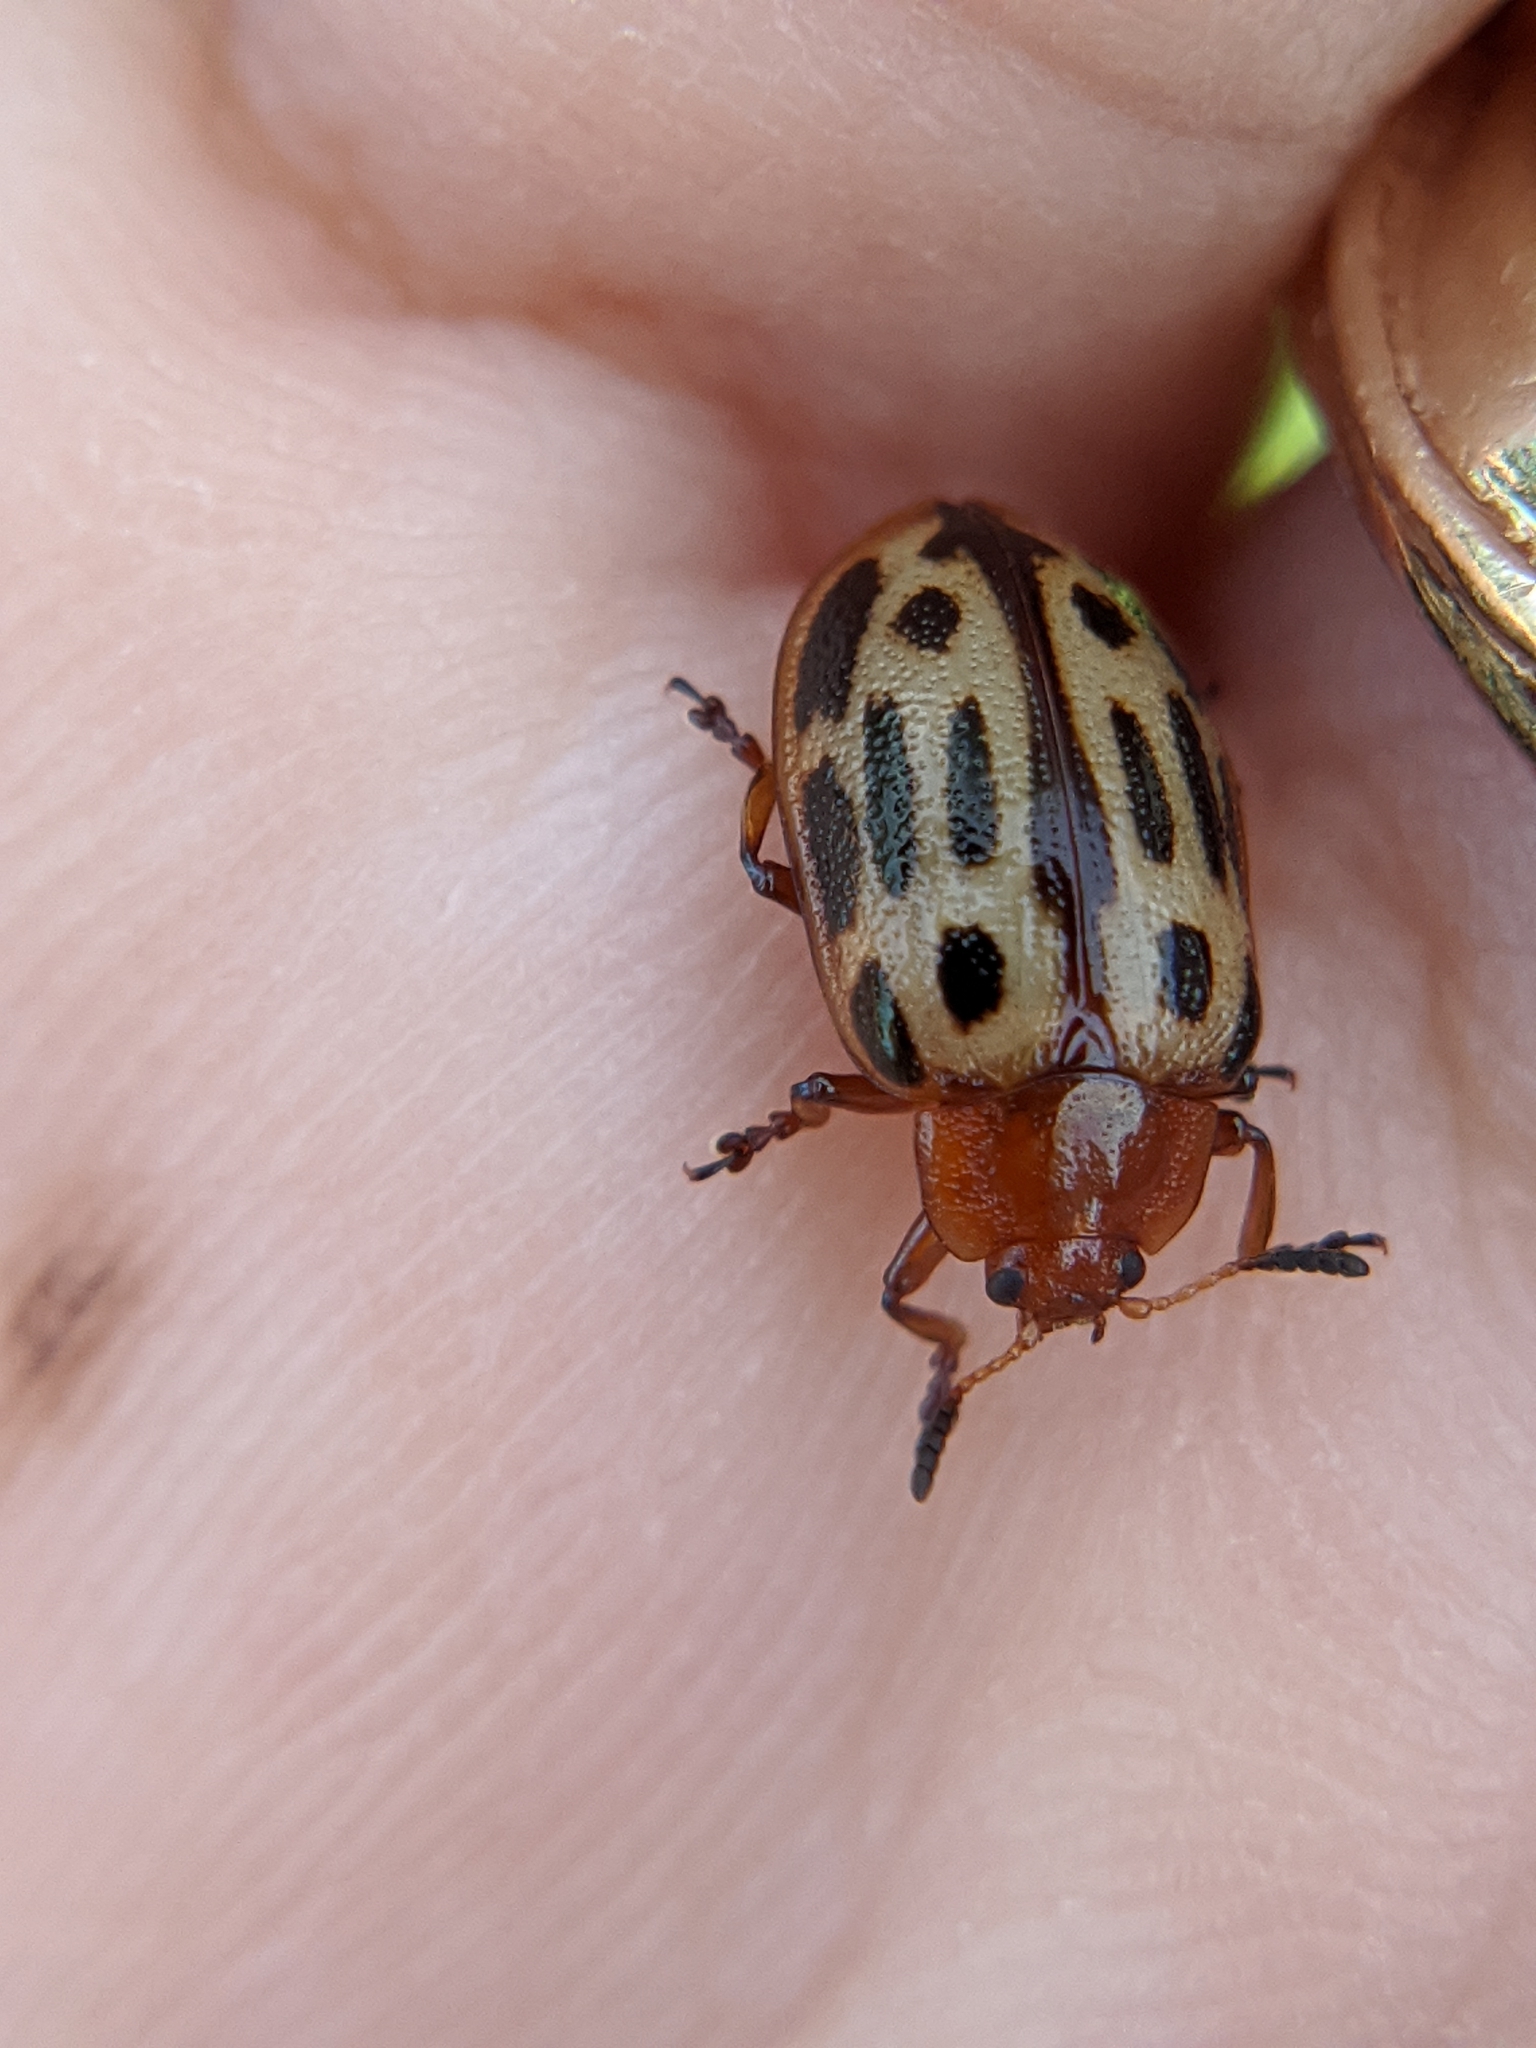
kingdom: Animalia
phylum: Arthropoda
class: Insecta
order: Coleoptera
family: Chrysomelidae
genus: Chrysomela
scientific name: Chrysomela texana
